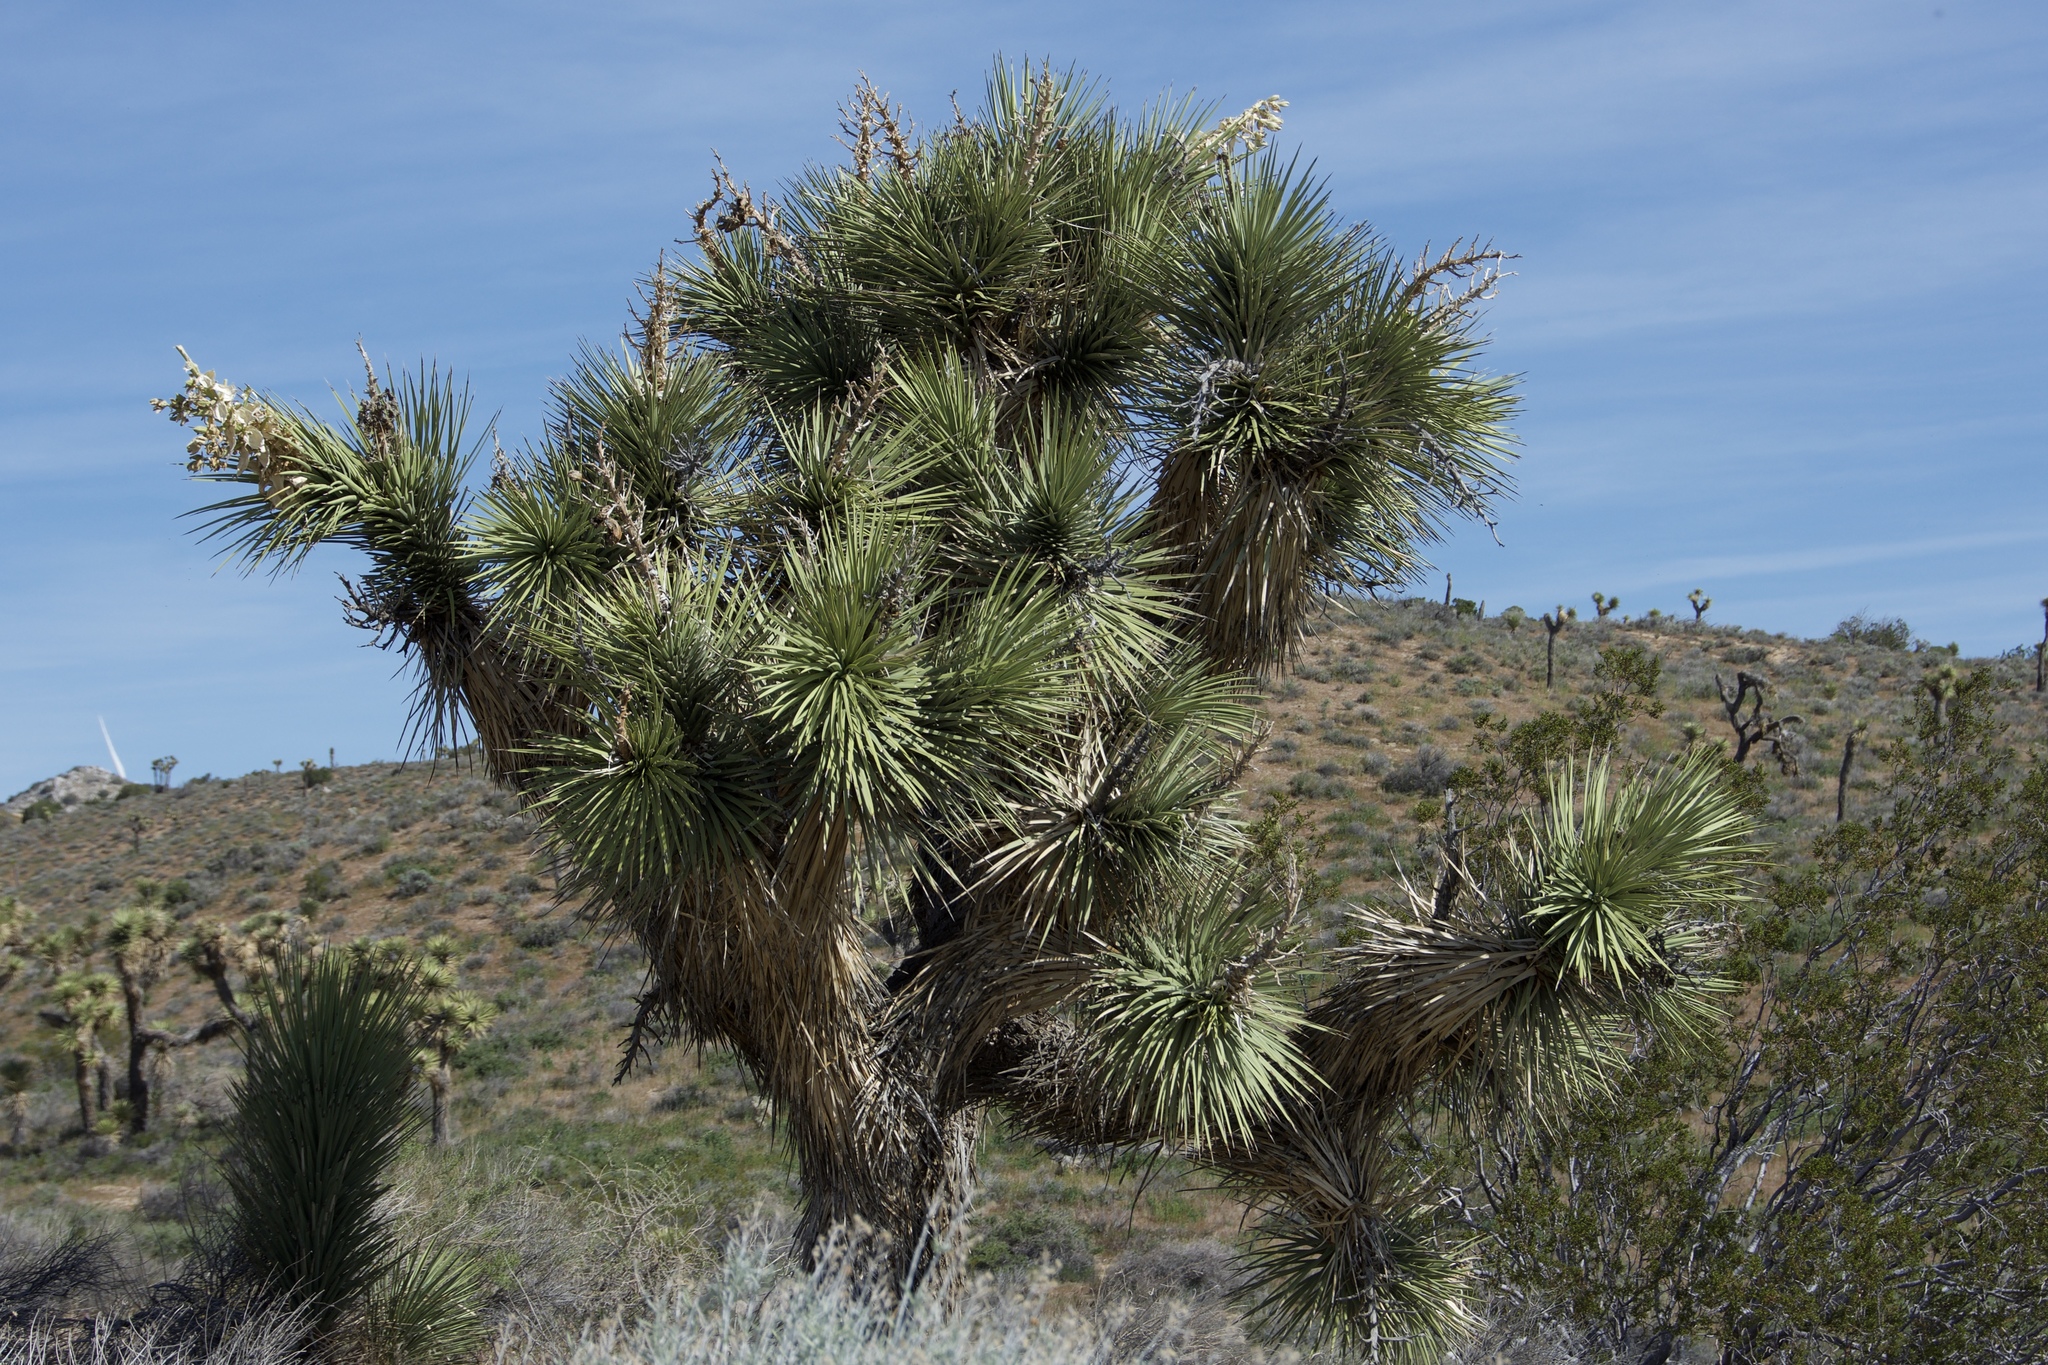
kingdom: Plantae
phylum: Tracheophyta
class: Liliopsida
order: Asparagales
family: Asparagaceae
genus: Yucca
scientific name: Yucca brevifolia
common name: Joshua tree
